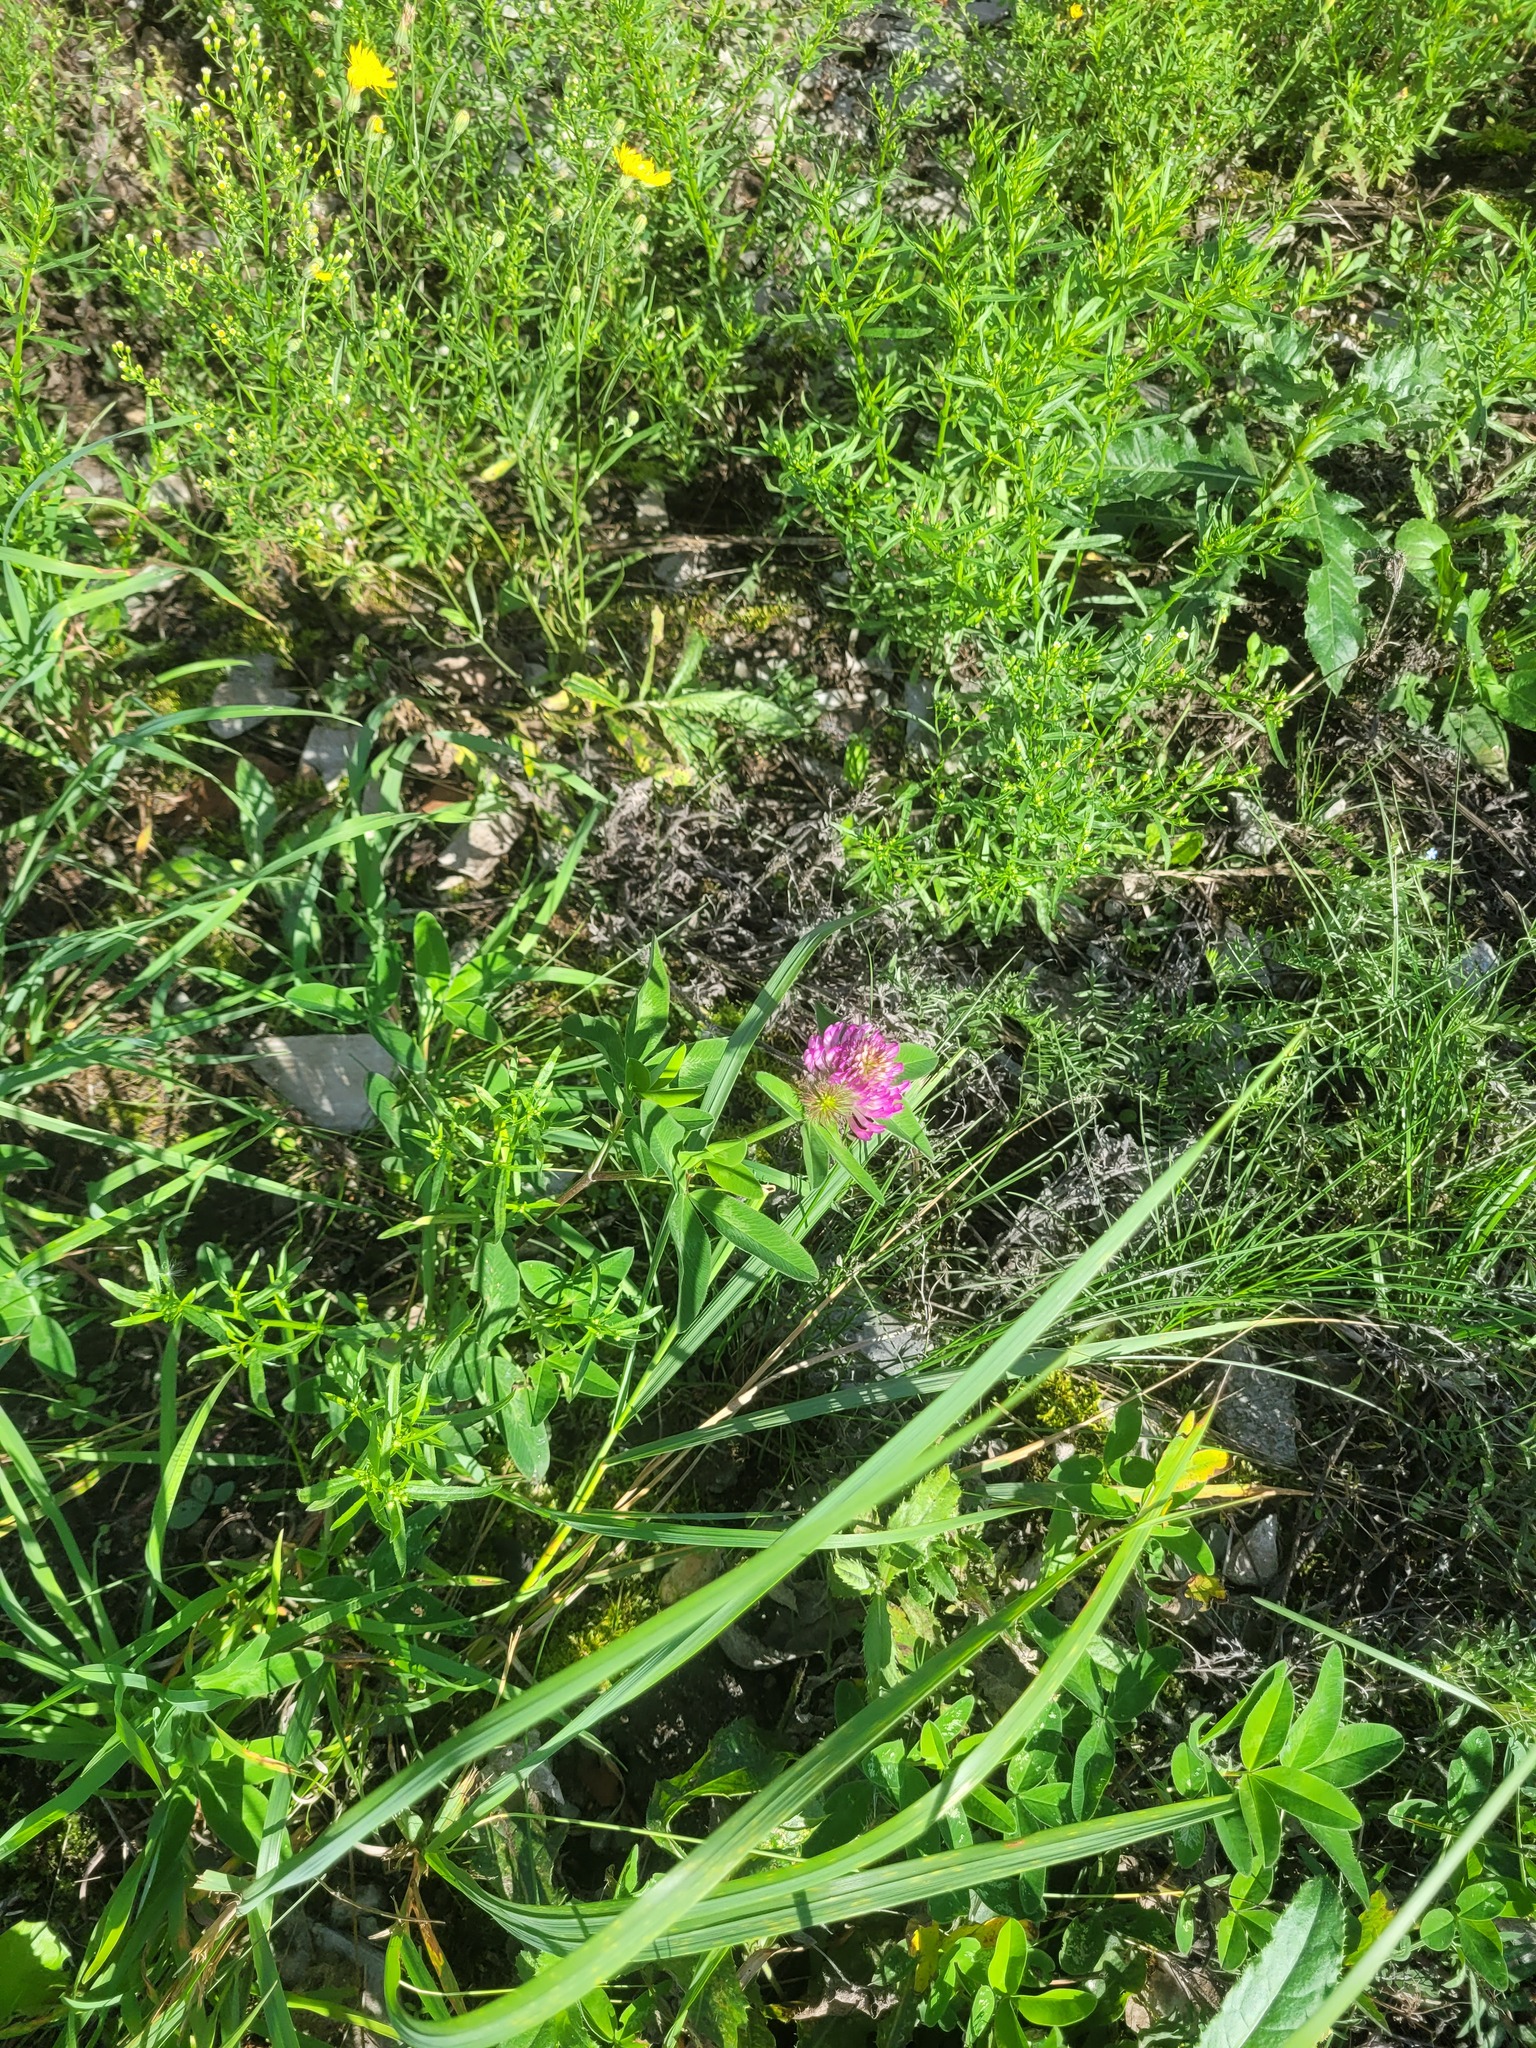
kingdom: Plantae
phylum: Tracheophyta
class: Magnoliopsida
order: Fabales
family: Fabaceae
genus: Trifolium
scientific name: Trifolium medium
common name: Zigzag clover
